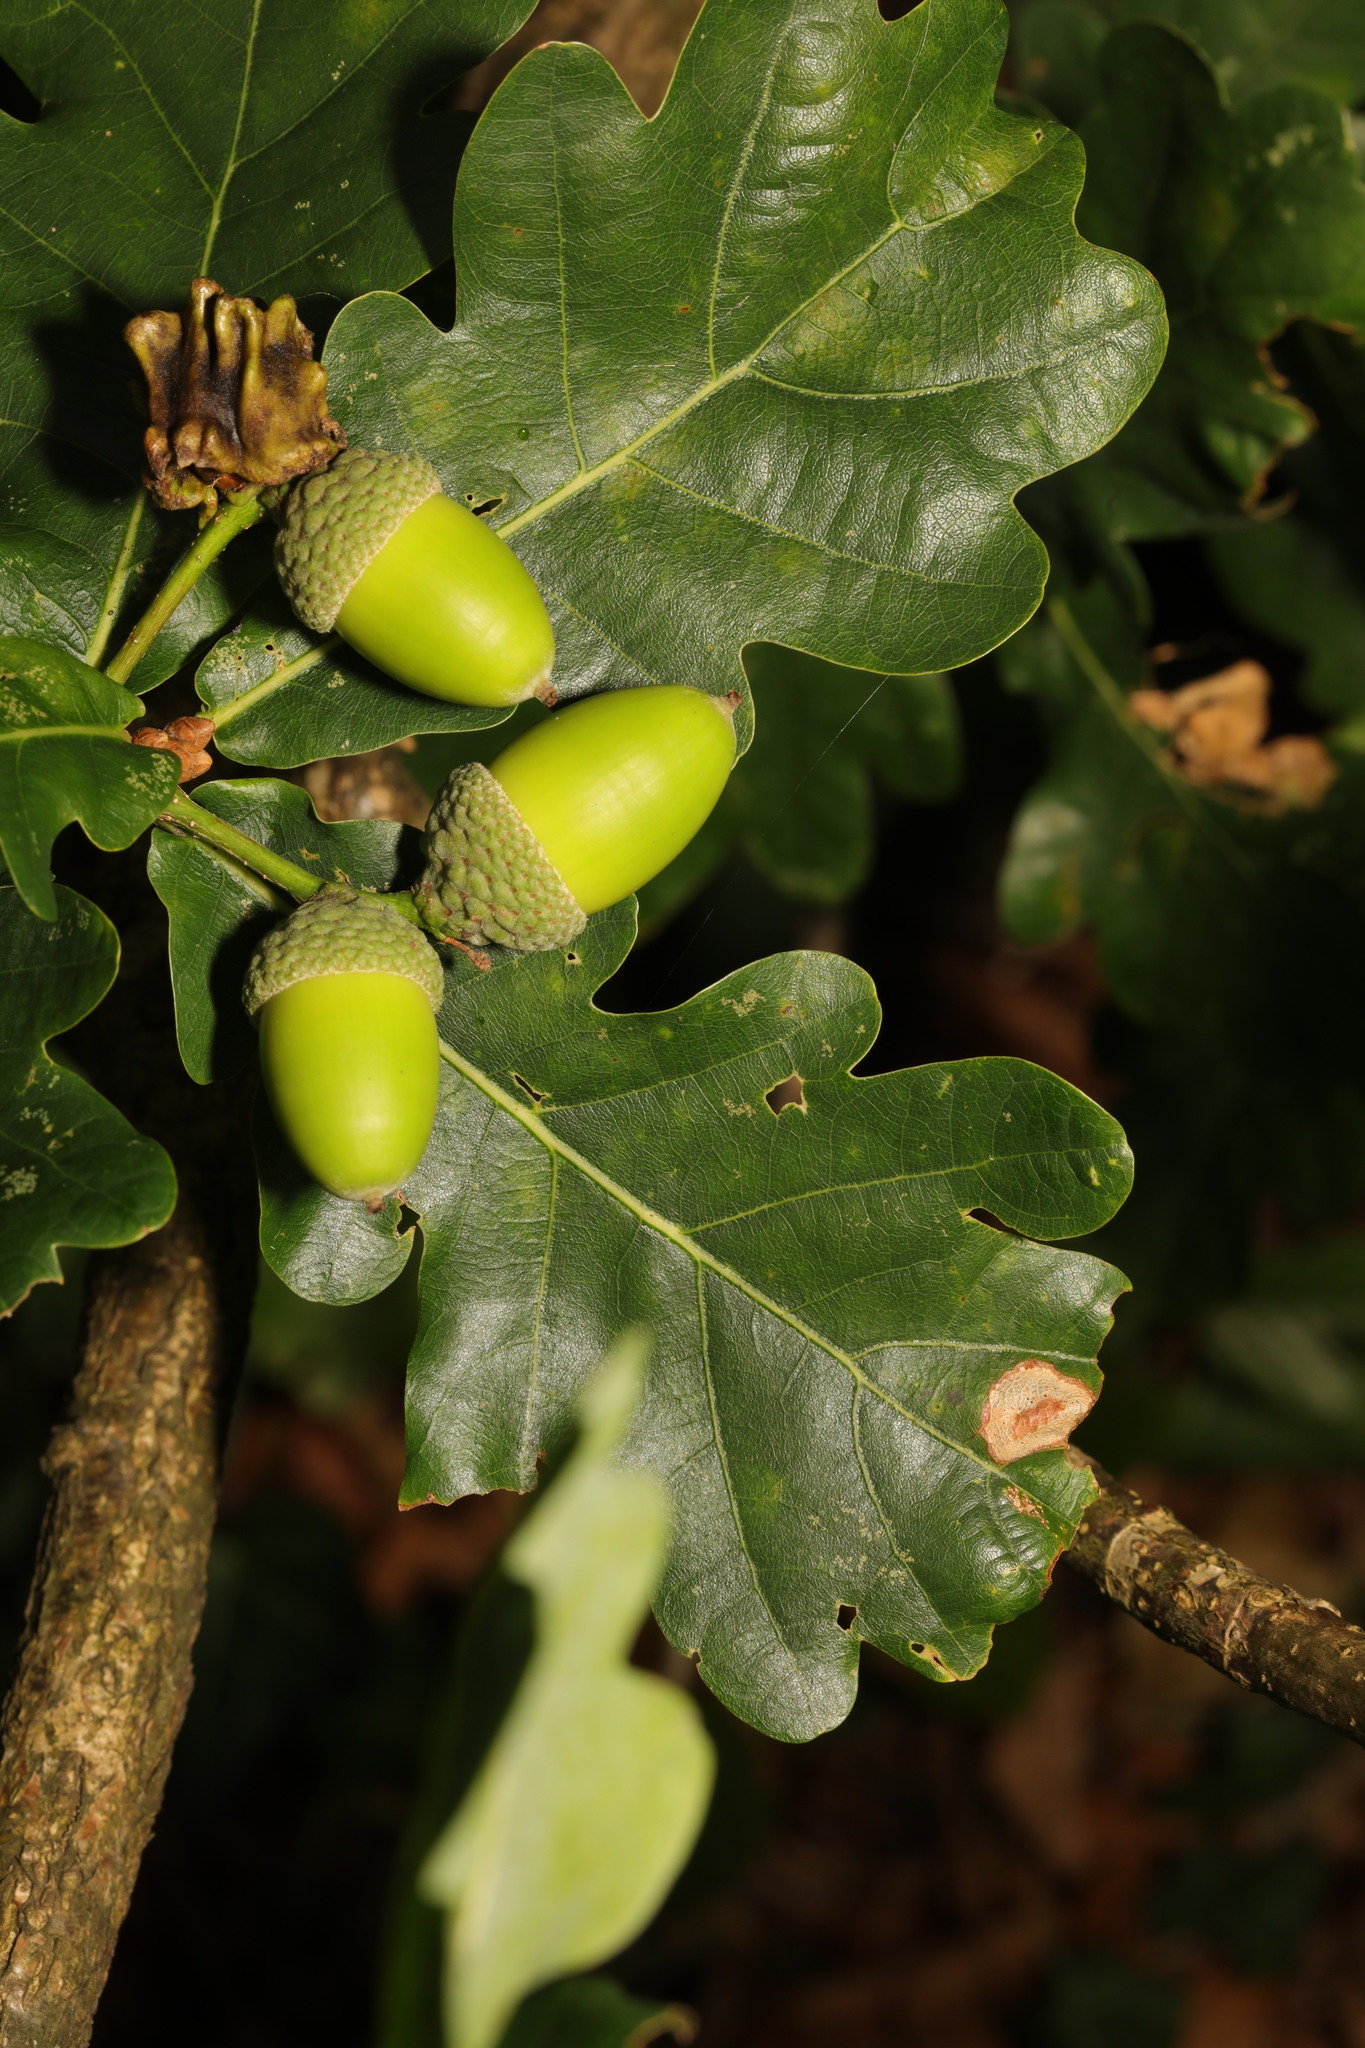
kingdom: Plantae
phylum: Tracheophyta
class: Magnoliopsida
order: Fagales
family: Fagaceae
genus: Quercus
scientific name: Quercus petraea
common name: Sessile oak
